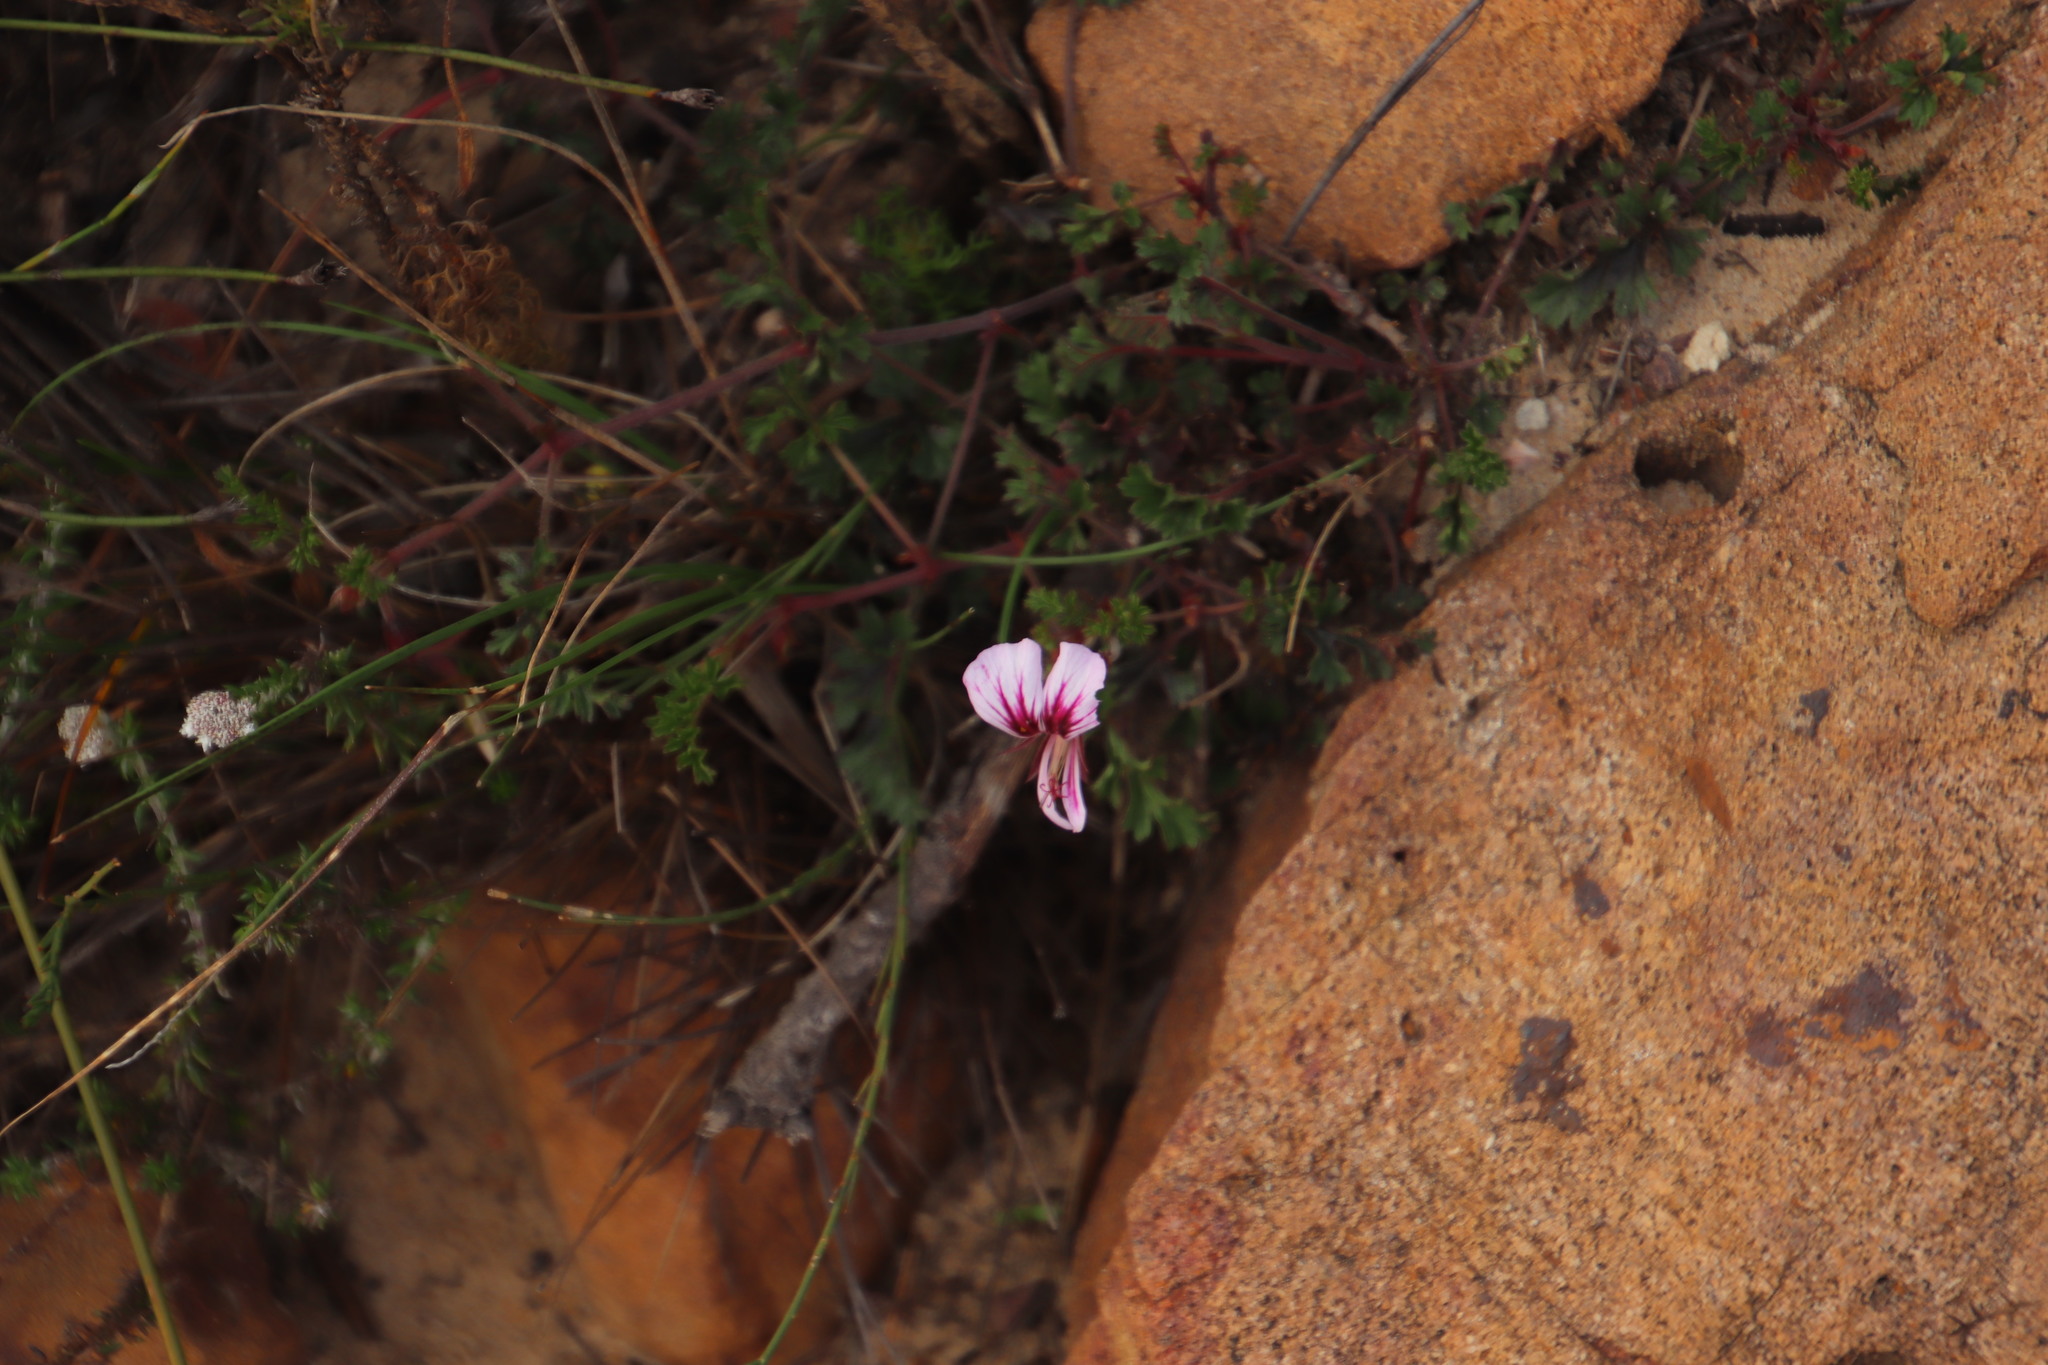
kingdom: Plantae
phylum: Tracheophyta
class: Magnoliopsida
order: Geraniales
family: Geraniaceae
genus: Pelargonium
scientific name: Pelargonium myrrhifolium
